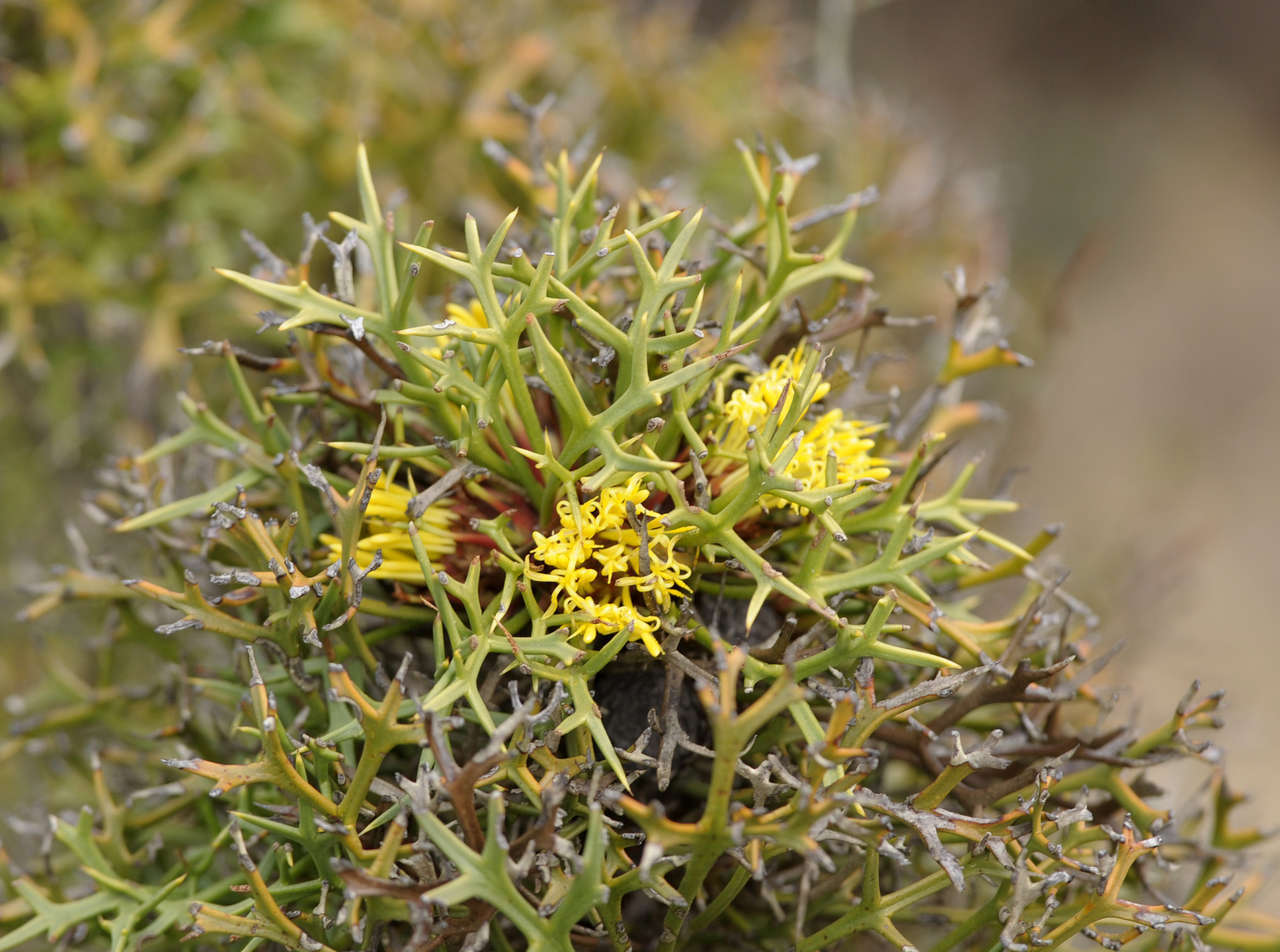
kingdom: Plantae
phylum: Tracheophyta
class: Magnoliopsida
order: Proteales
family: Proteaceae
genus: Isopogon
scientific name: Isopogon ceratophyllus
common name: Horny cone-bush
